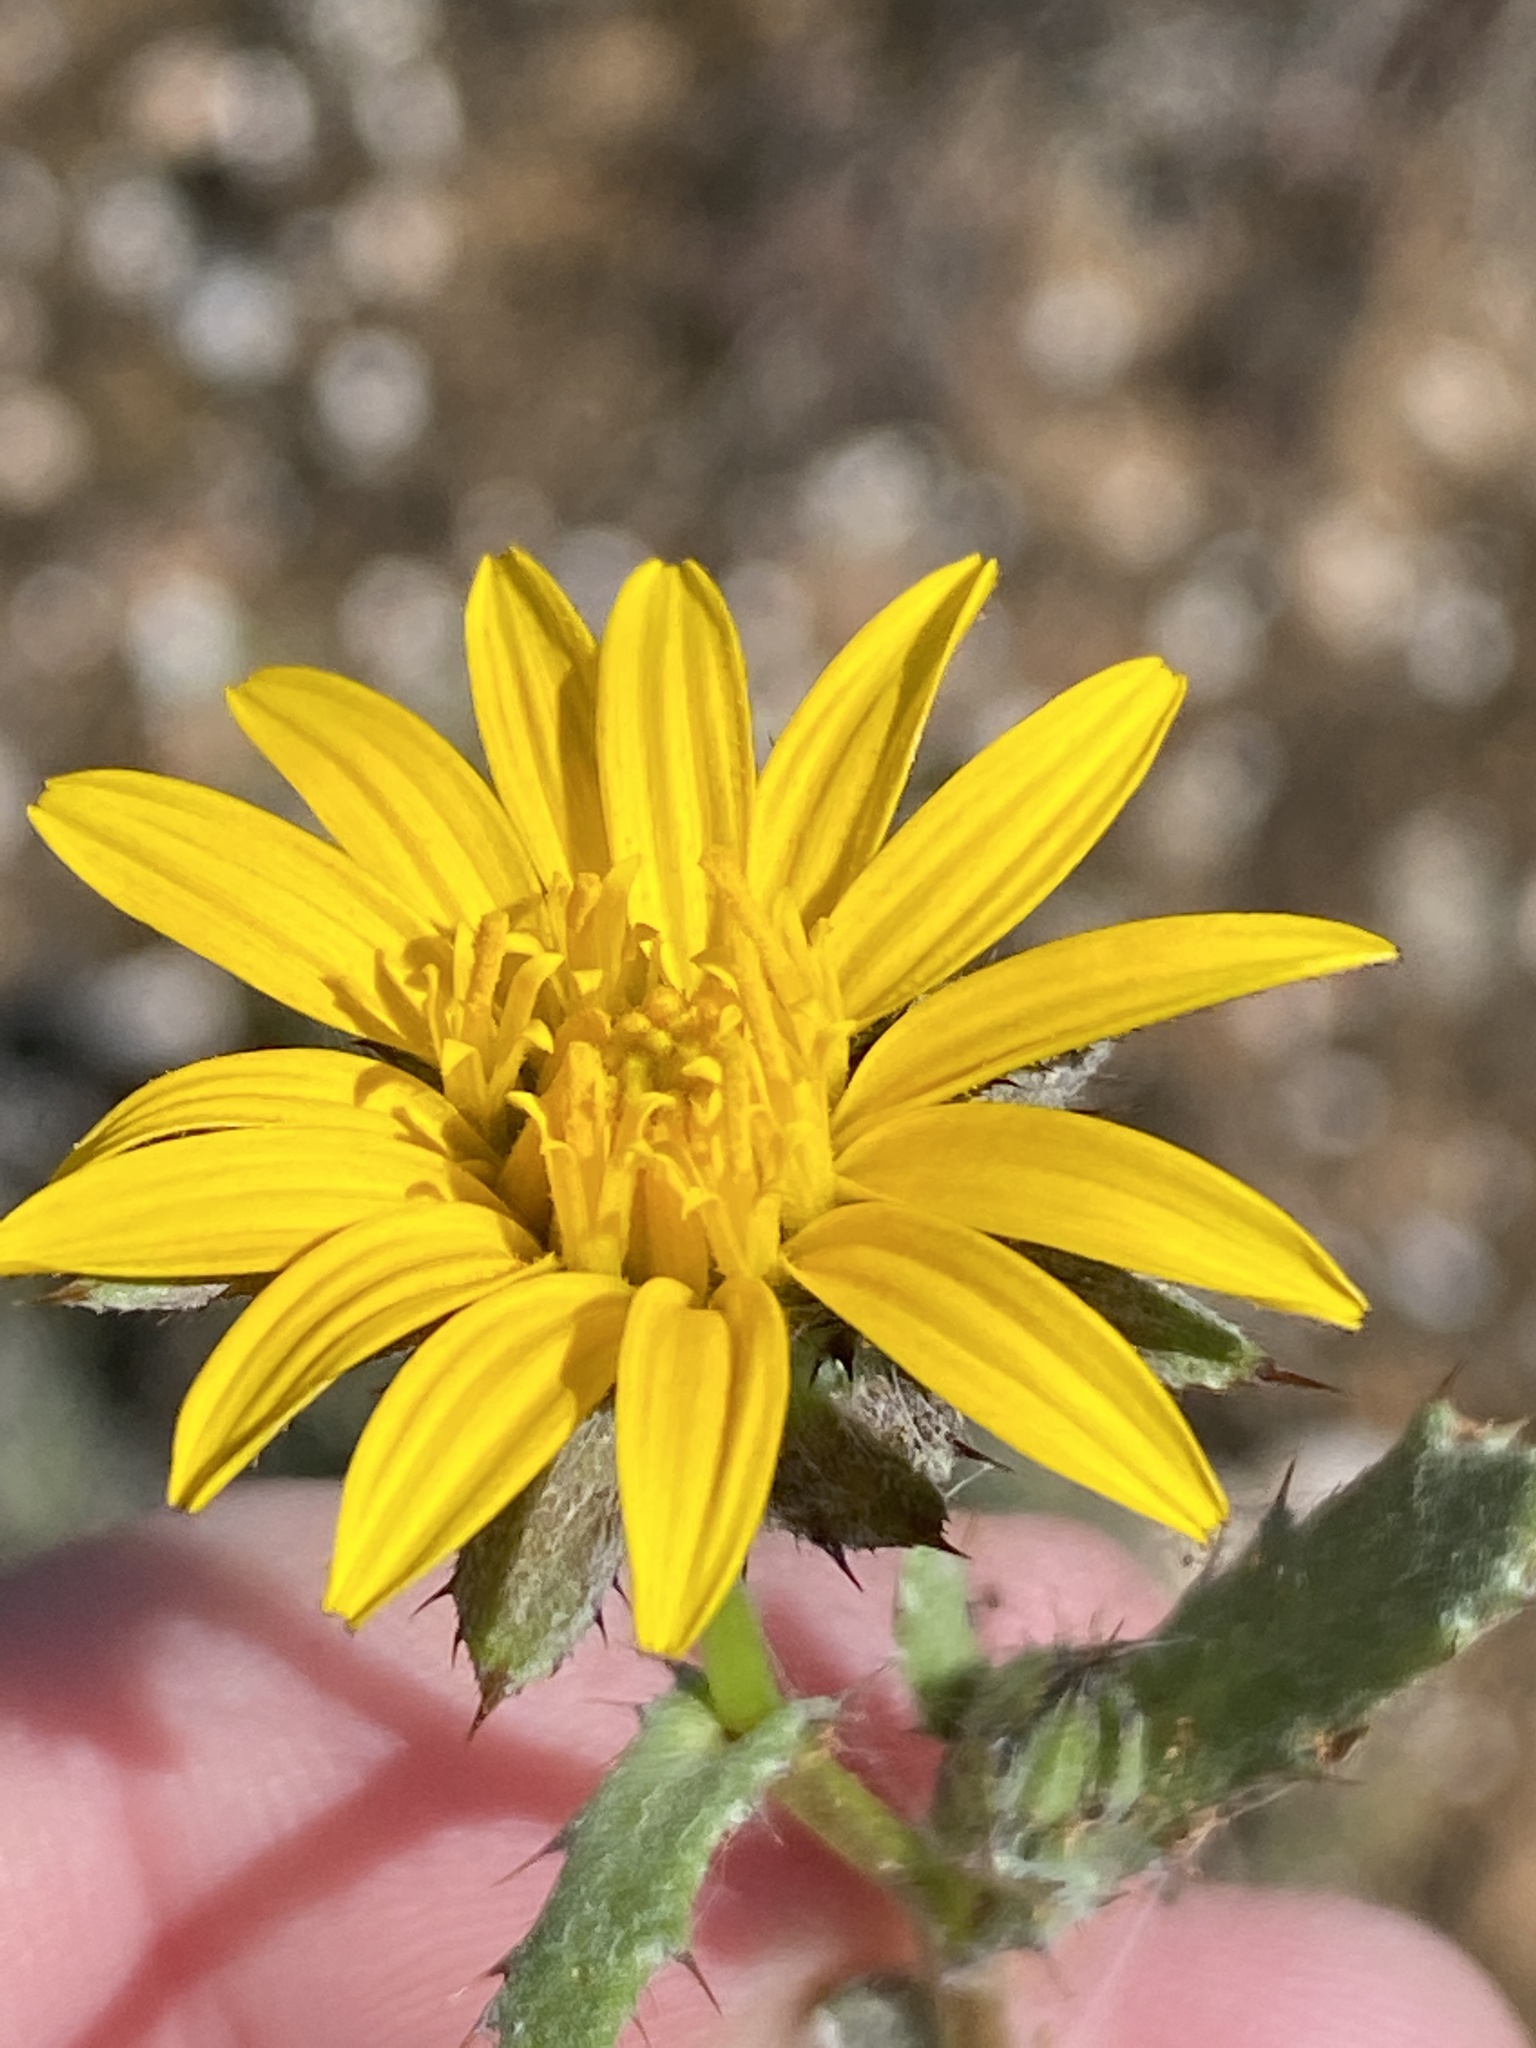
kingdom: Plantae
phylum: Tracheophyta
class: Magnoliopsida
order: Asterales
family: Asteraceae
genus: Cuspidia
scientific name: Cuspidia cernua
